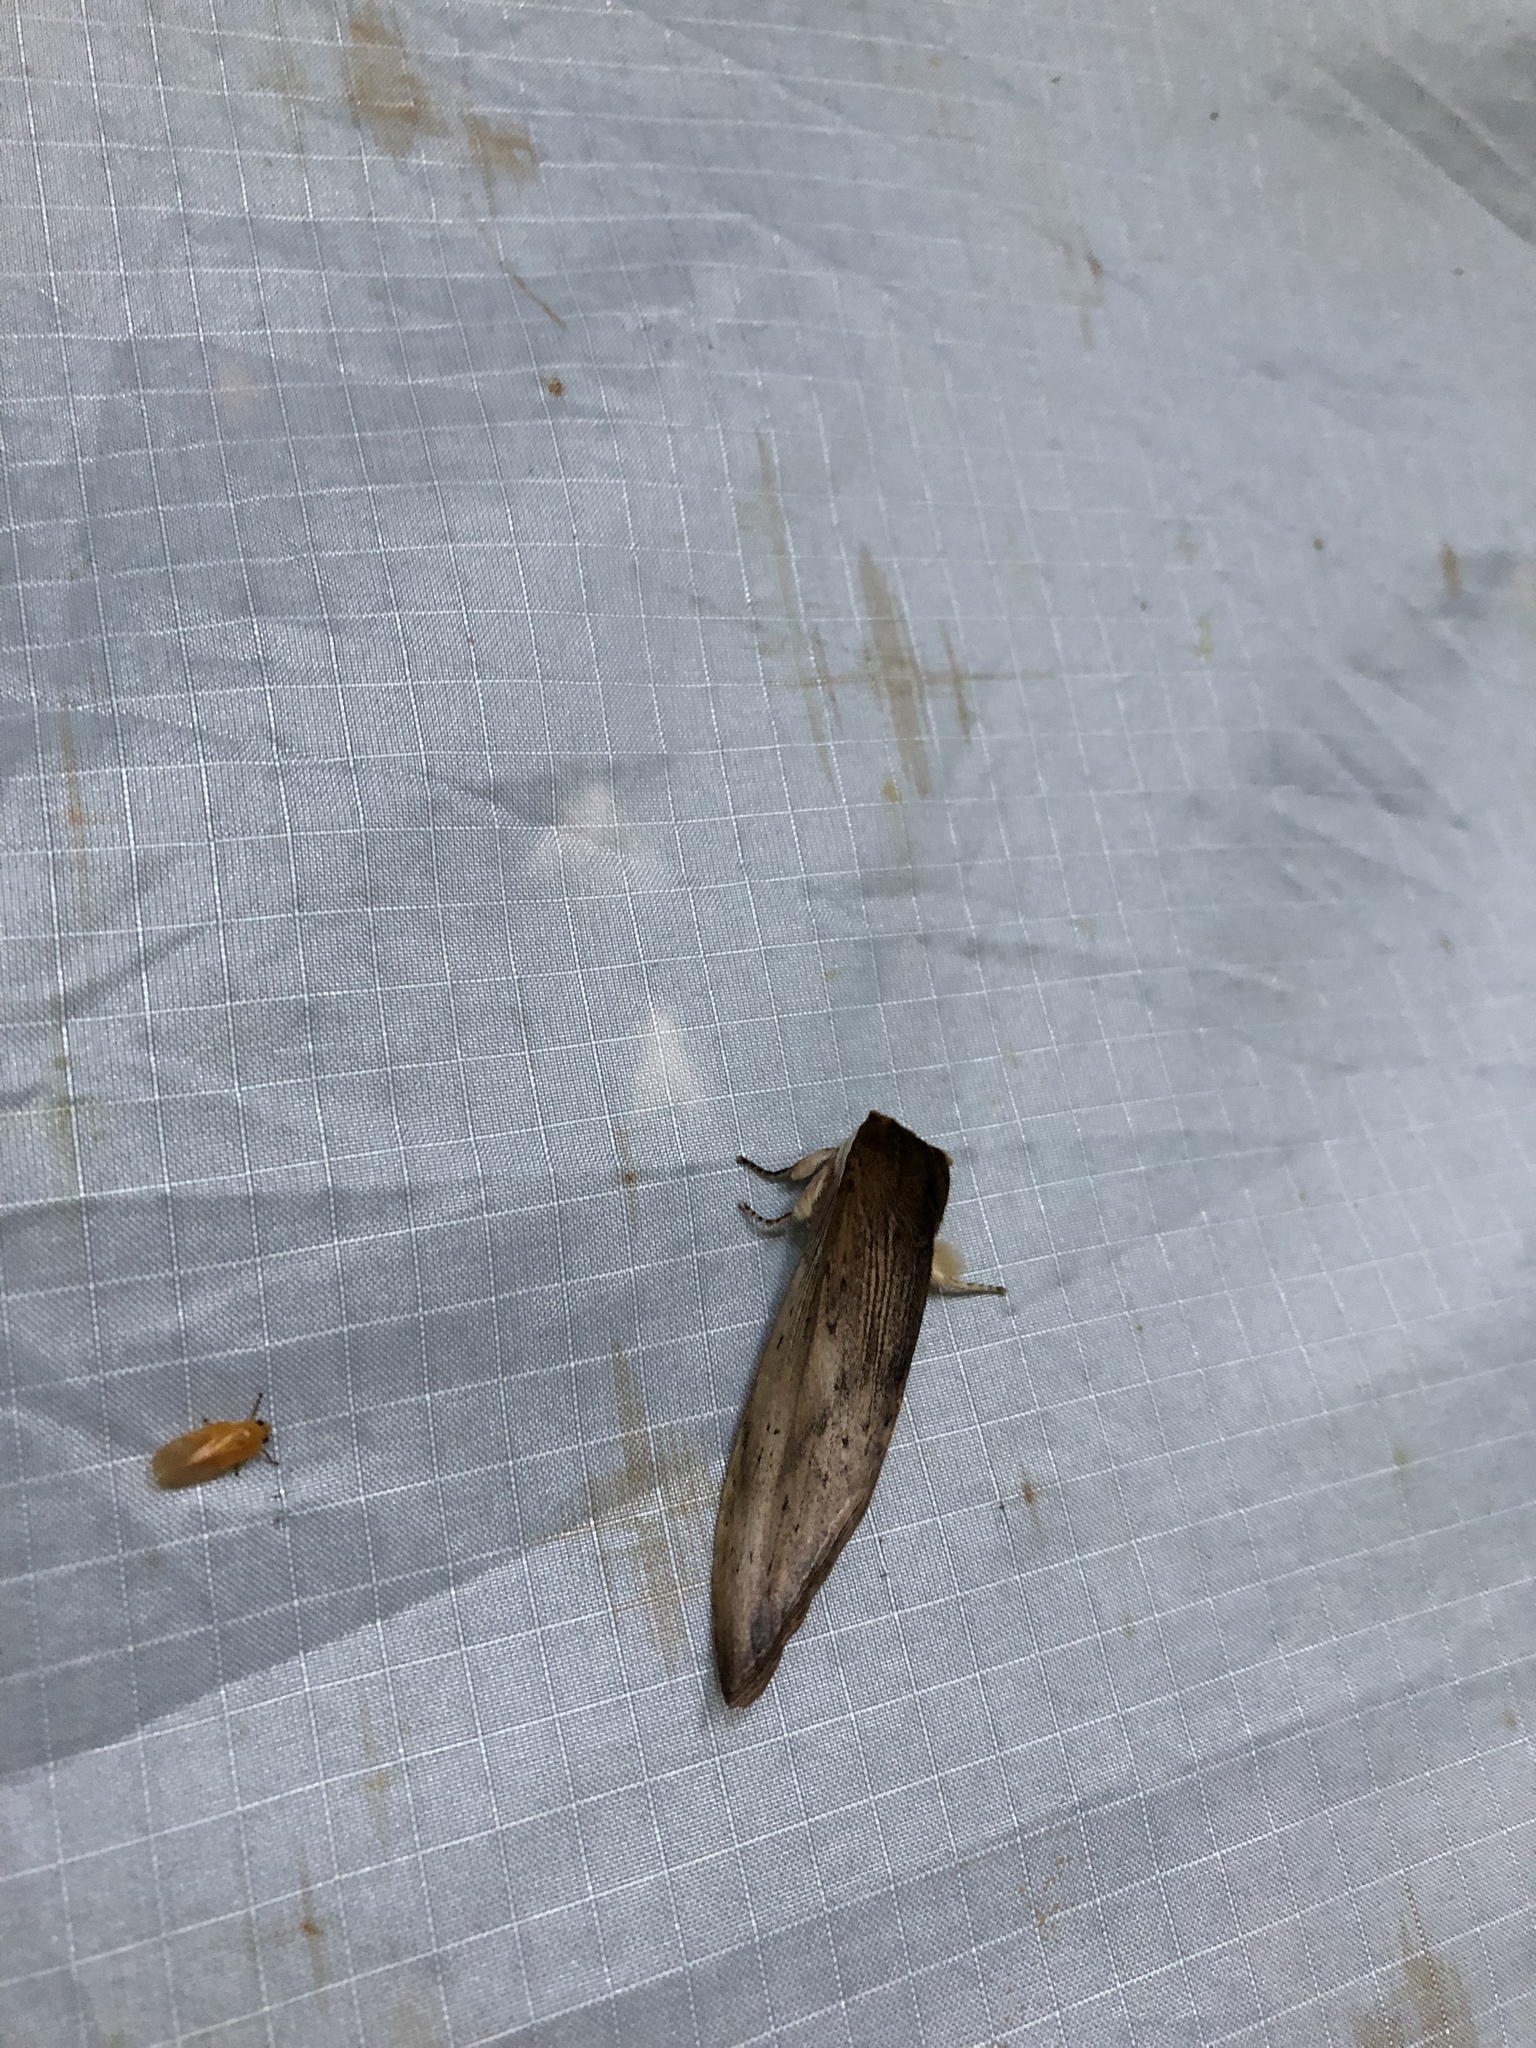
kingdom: Animalia
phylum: Arthropoda
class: Insecta
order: Lepidoptera
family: Notodontidae
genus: Truncaptera
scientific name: Truncaptera postpallida
